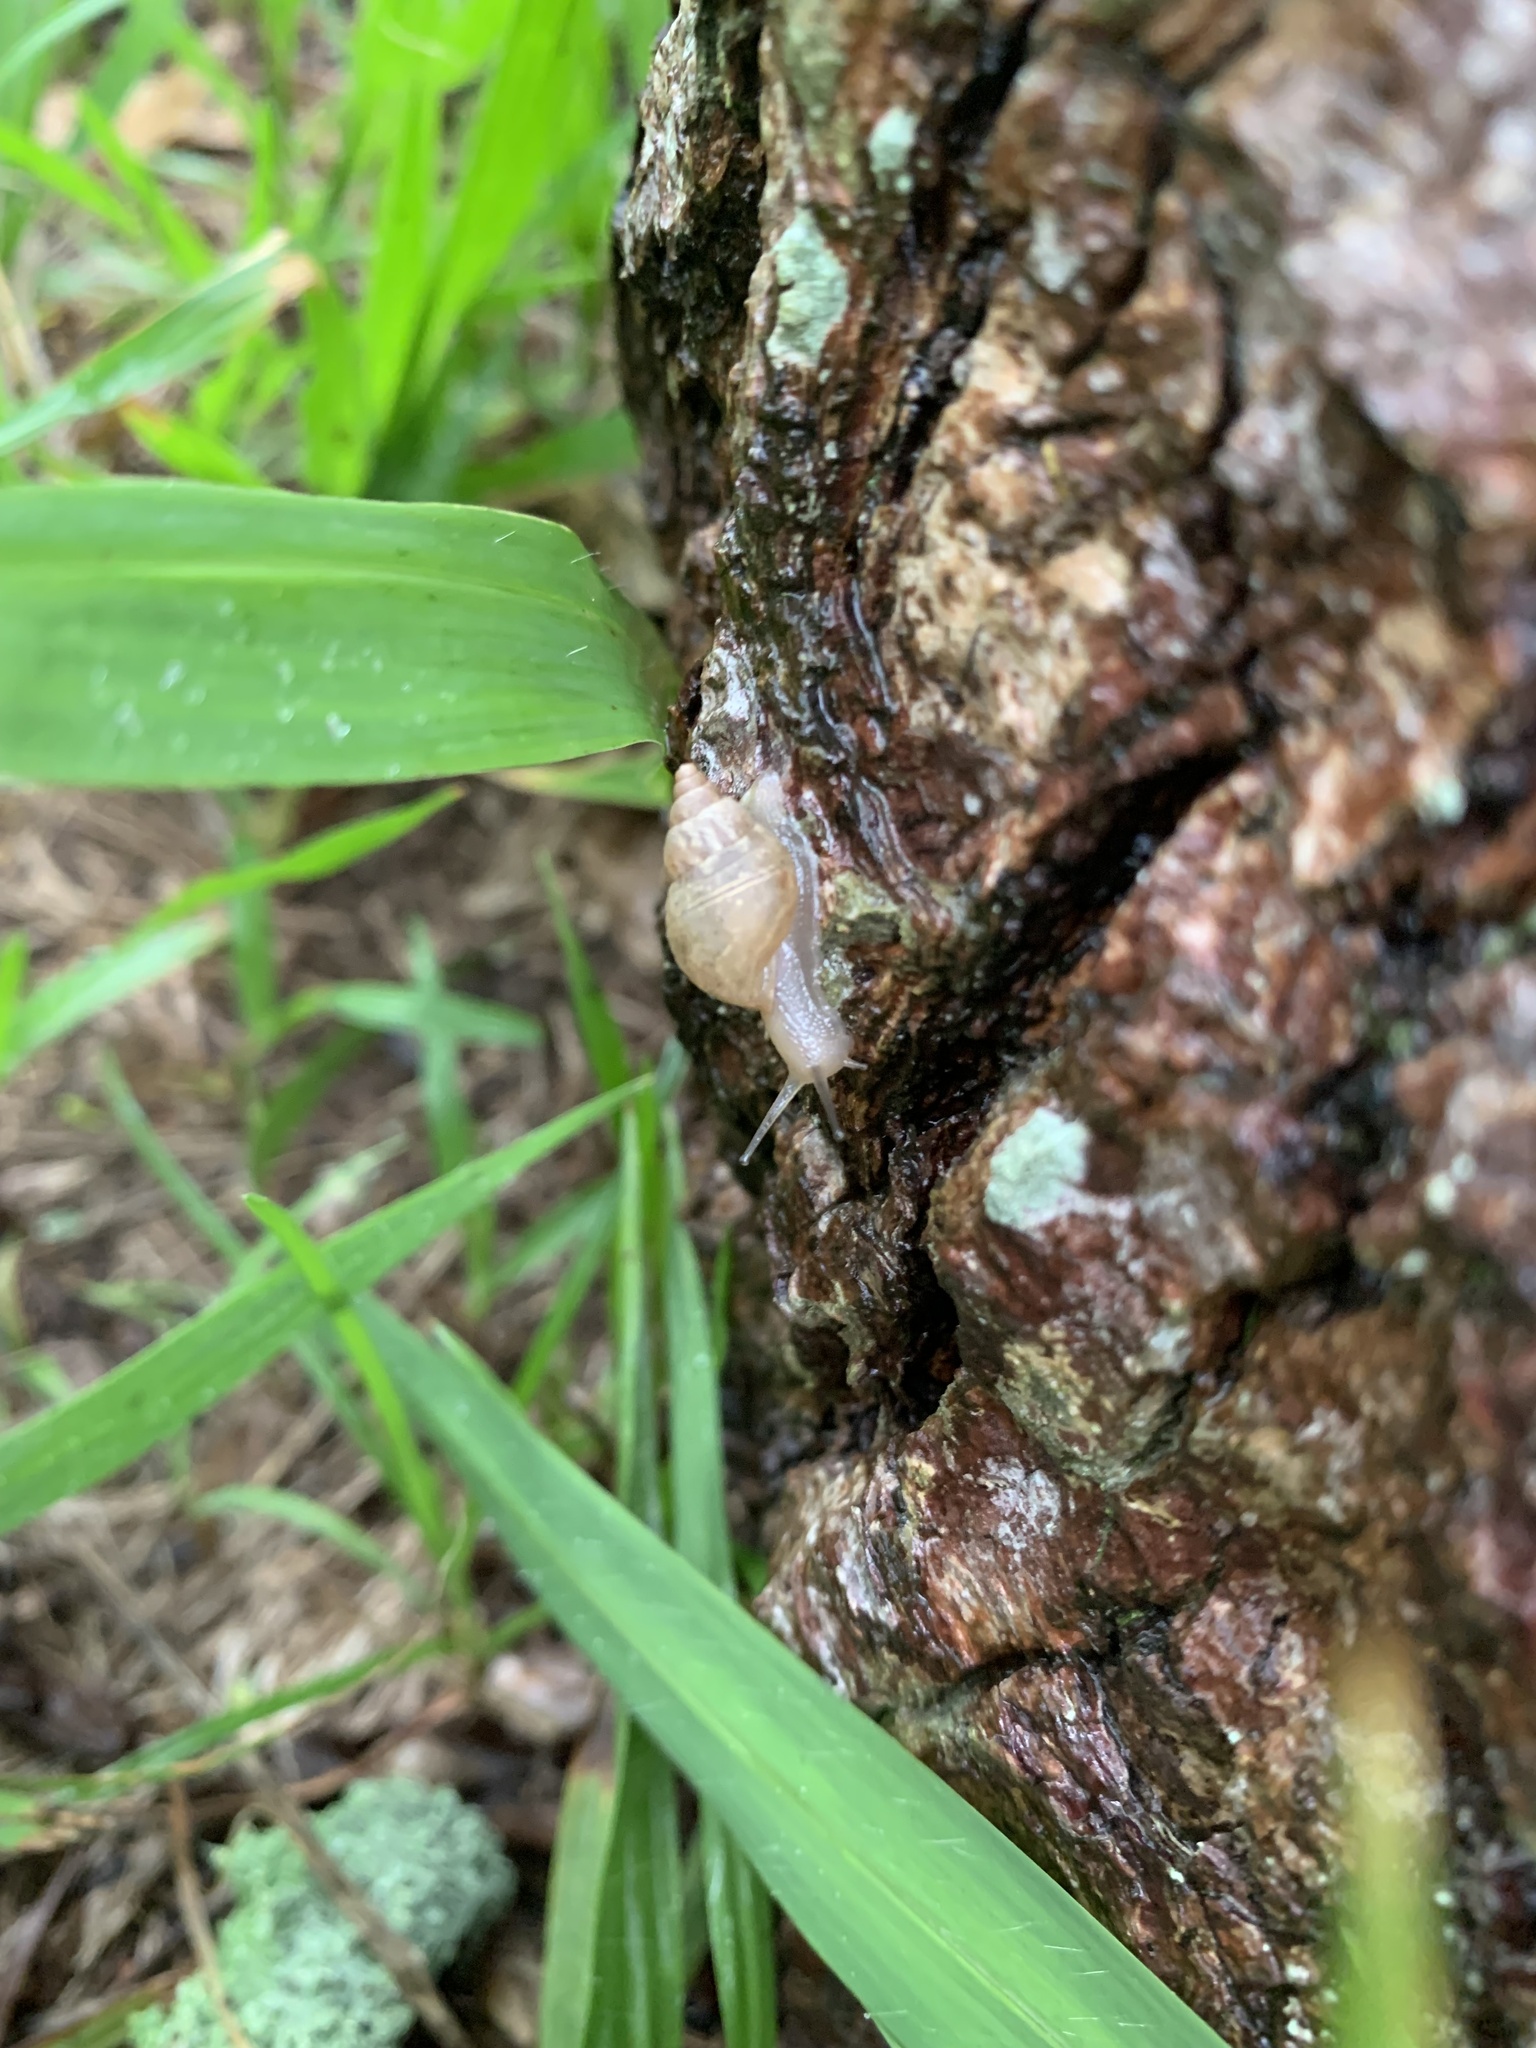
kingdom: Animalia
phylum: Mollusca
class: Gastropoda
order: Stylommatophora
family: Bulimulidae
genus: Bulimulus
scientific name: Bulimulus tenuissimus
